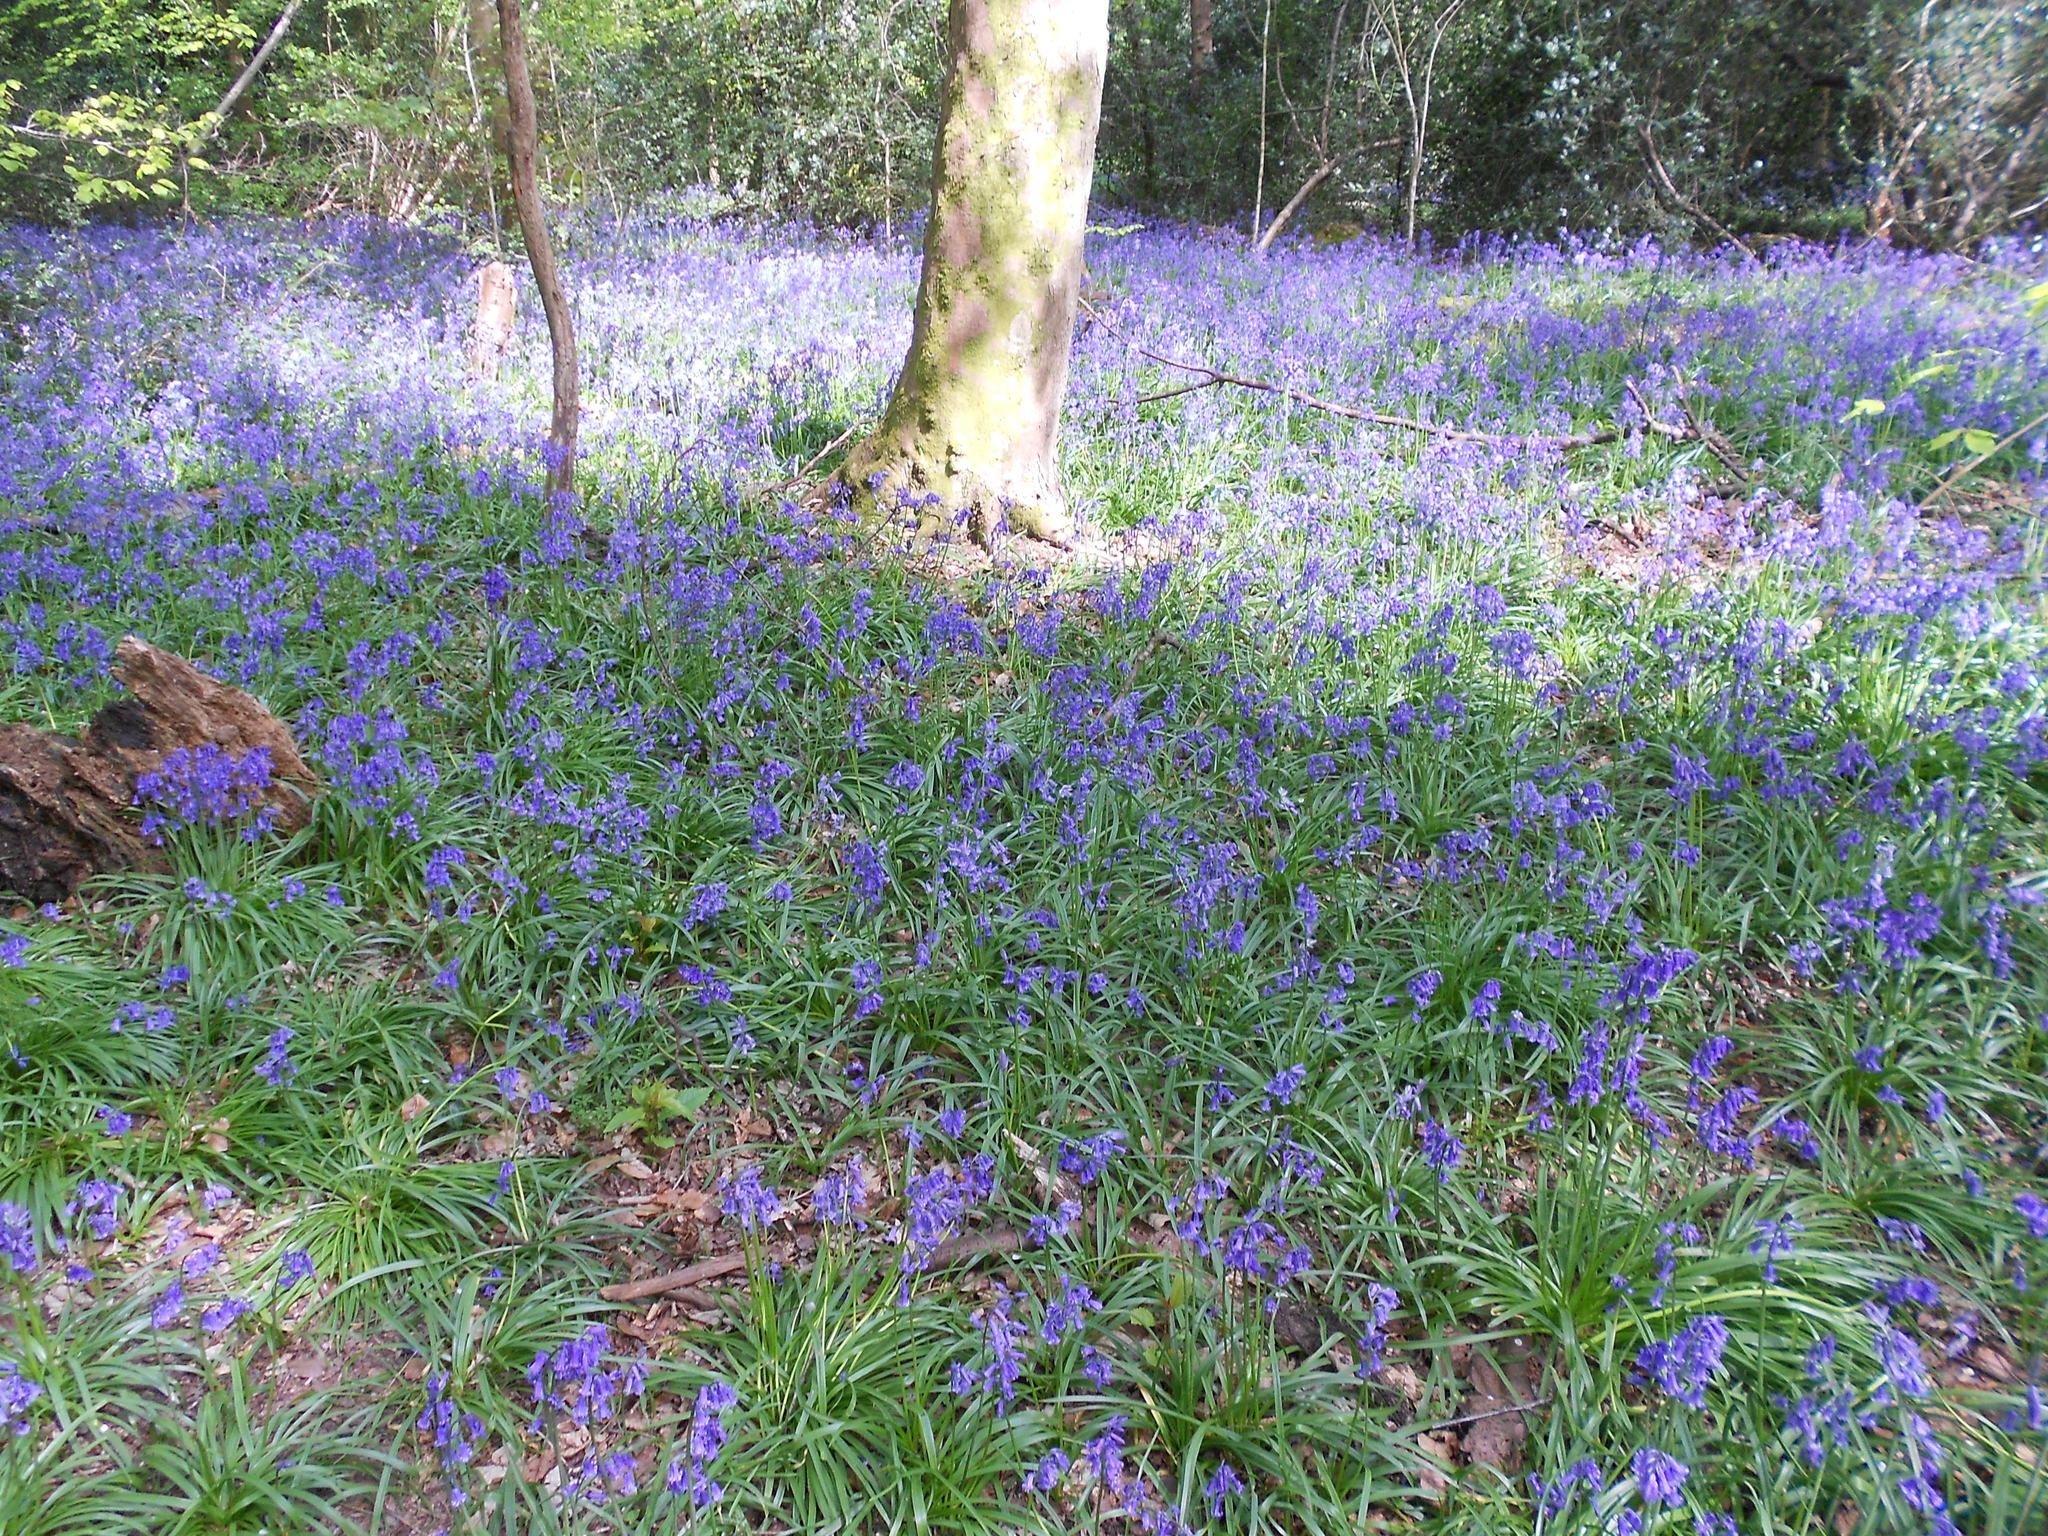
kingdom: Plantae
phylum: Tracheophyta
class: Liliopsida
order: Asparagales
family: Asparagaceae
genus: Hyacinthoides
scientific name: Hyacinthoides
